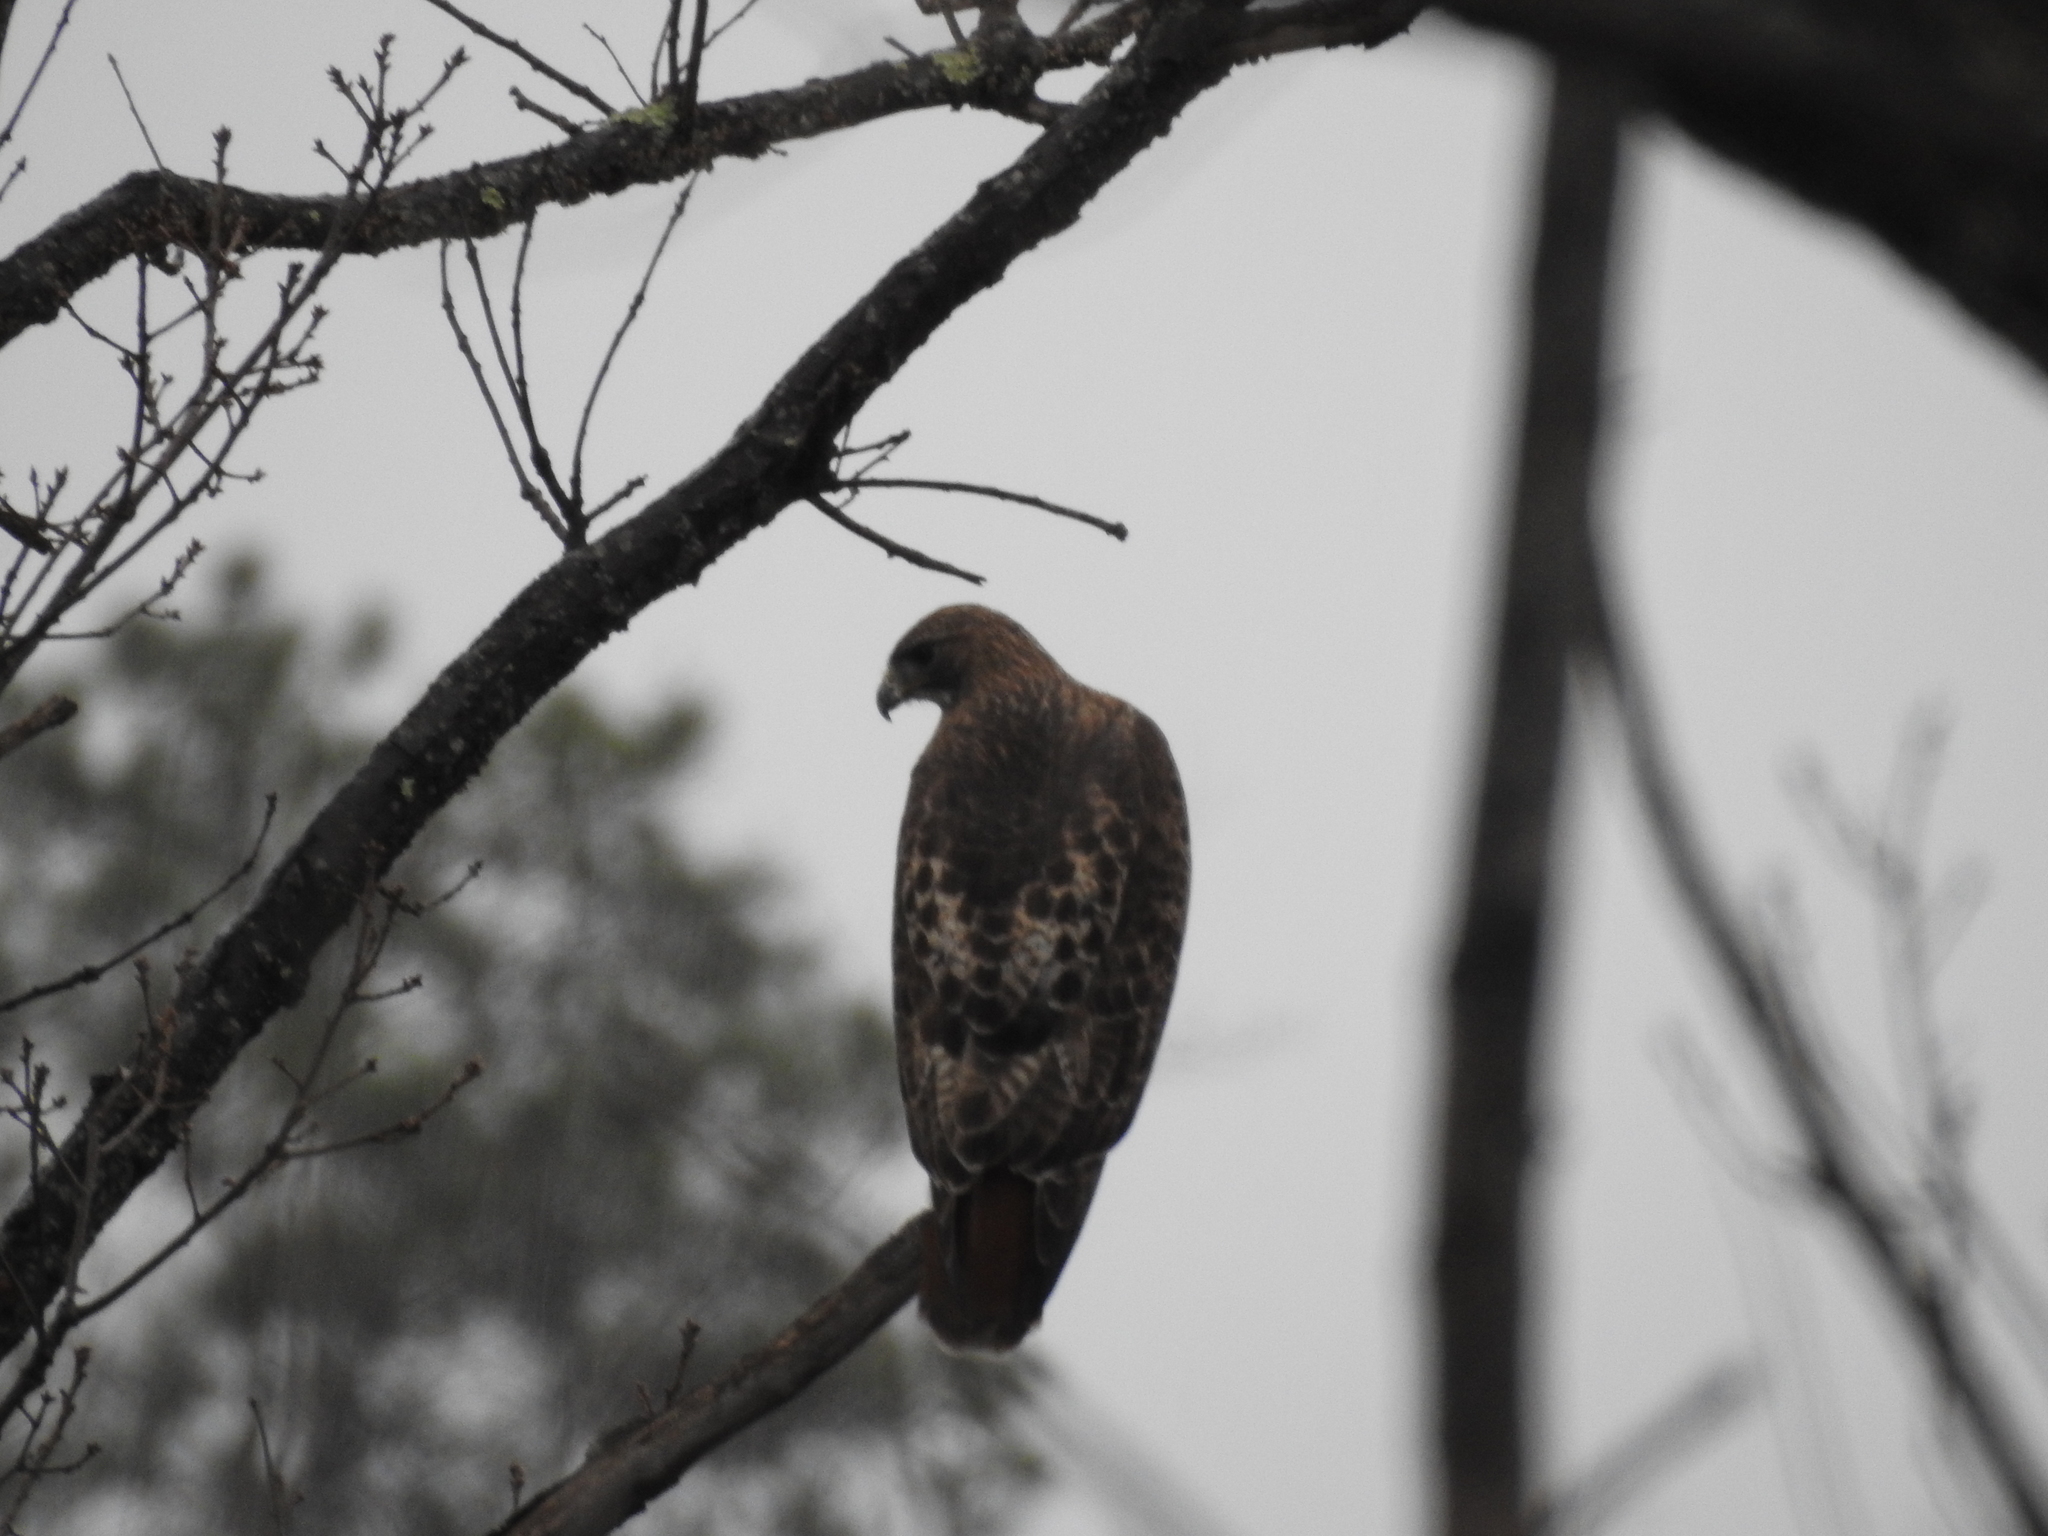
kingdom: Animalia
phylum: Chordata
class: Aves
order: Accipitriformes
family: Accipitridae
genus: Buteo
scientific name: Buteo jamaicensis
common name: Red-tailed hawk
